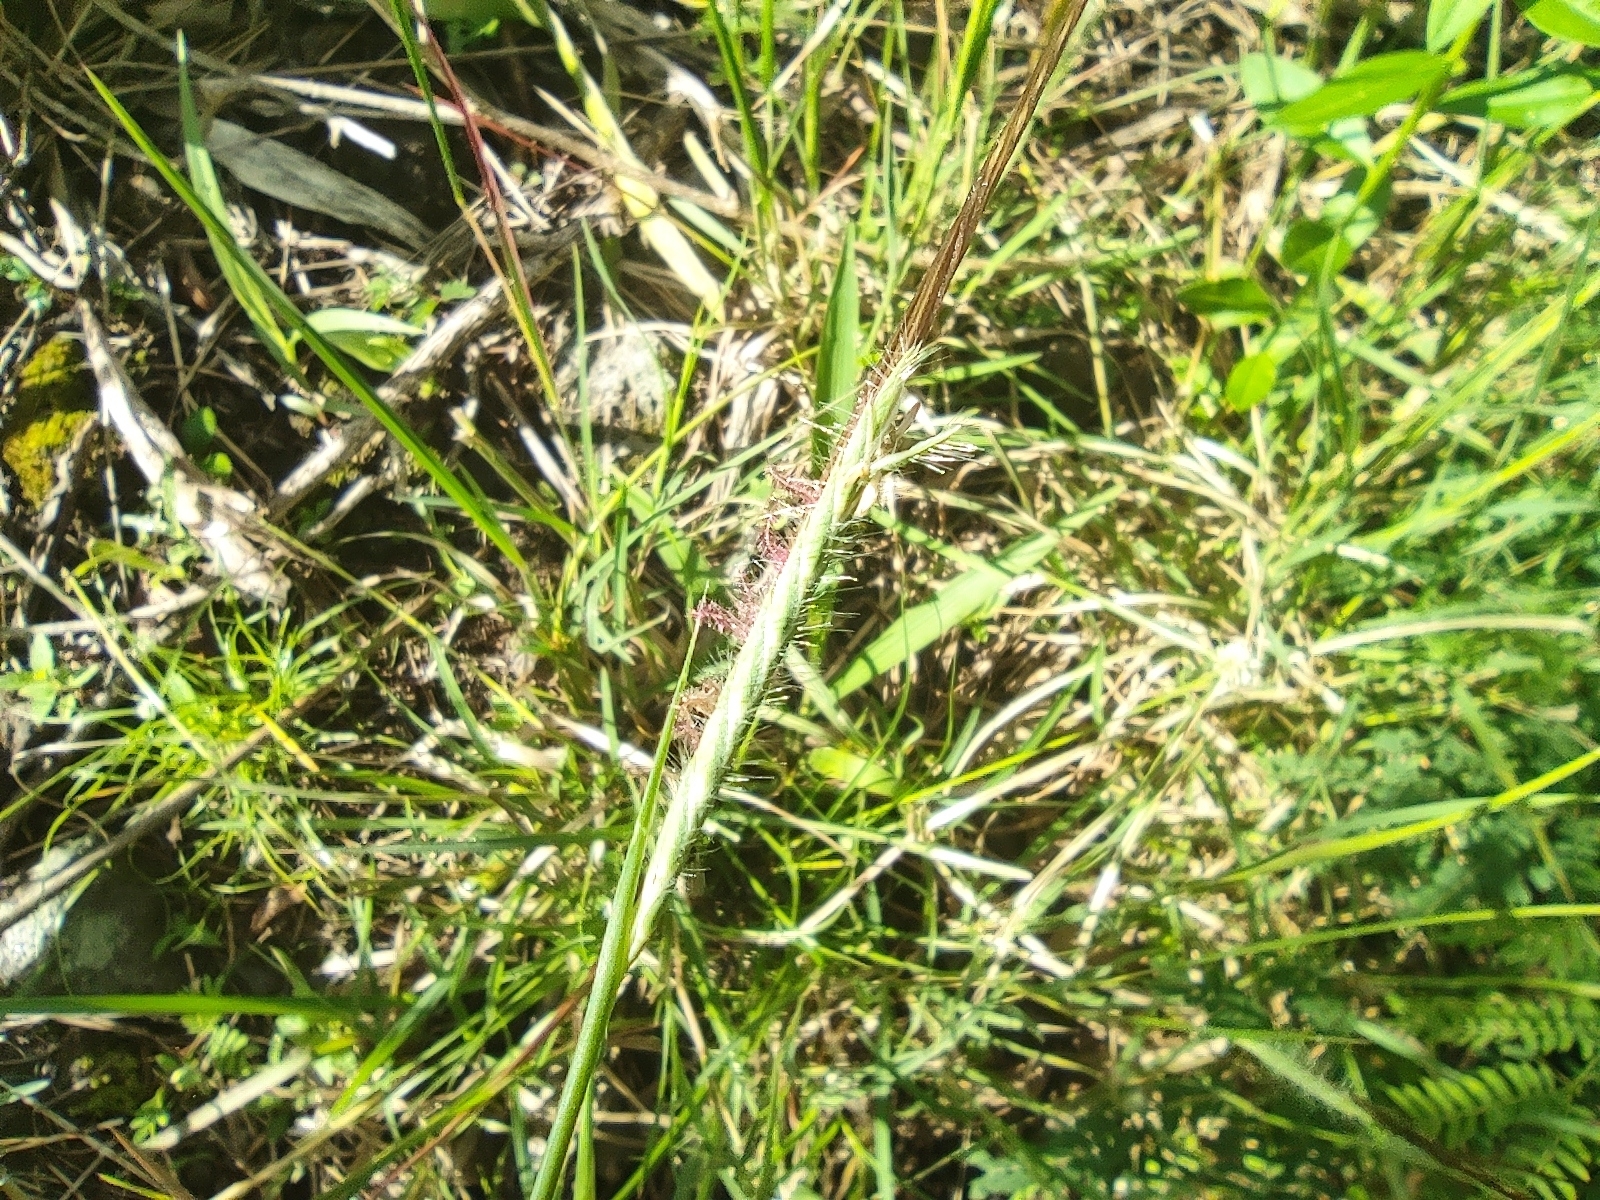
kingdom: Plantae
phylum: Tracheophyta
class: Liliopsida
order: Poales
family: Poaceae
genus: Heteropogon
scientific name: Heteropogon contortus
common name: Tanglehead
